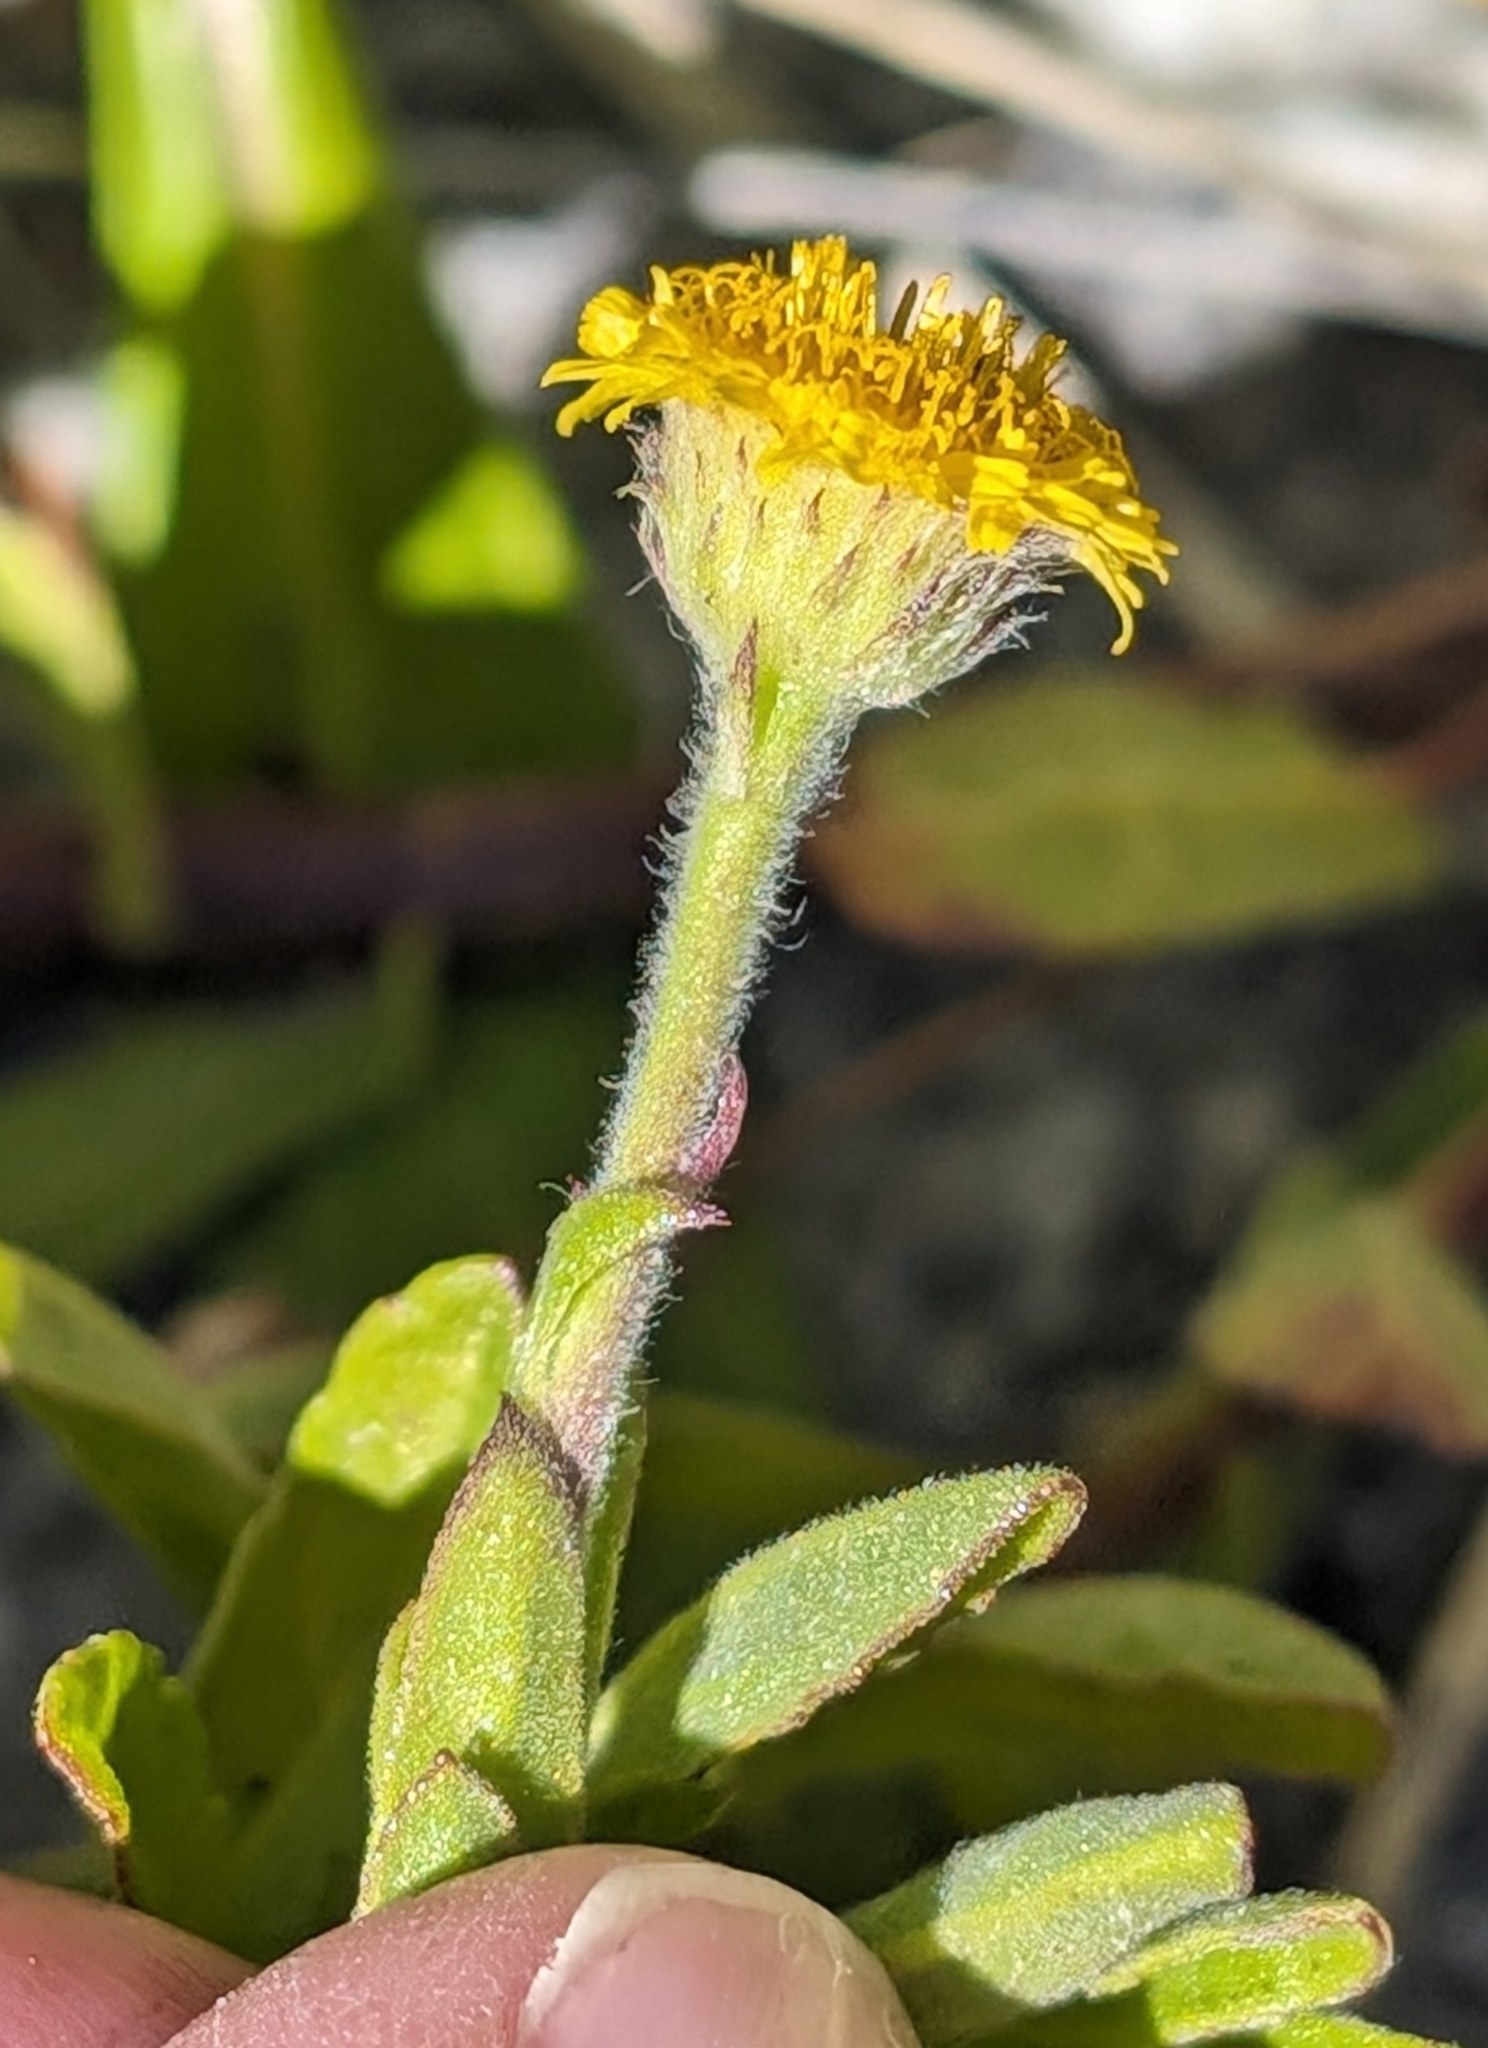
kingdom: Plantae
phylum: Tracheophyta
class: Magnoliopsida
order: Asterales
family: Asteraceae
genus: Pulicaria
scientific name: Pulicaria paludosa
